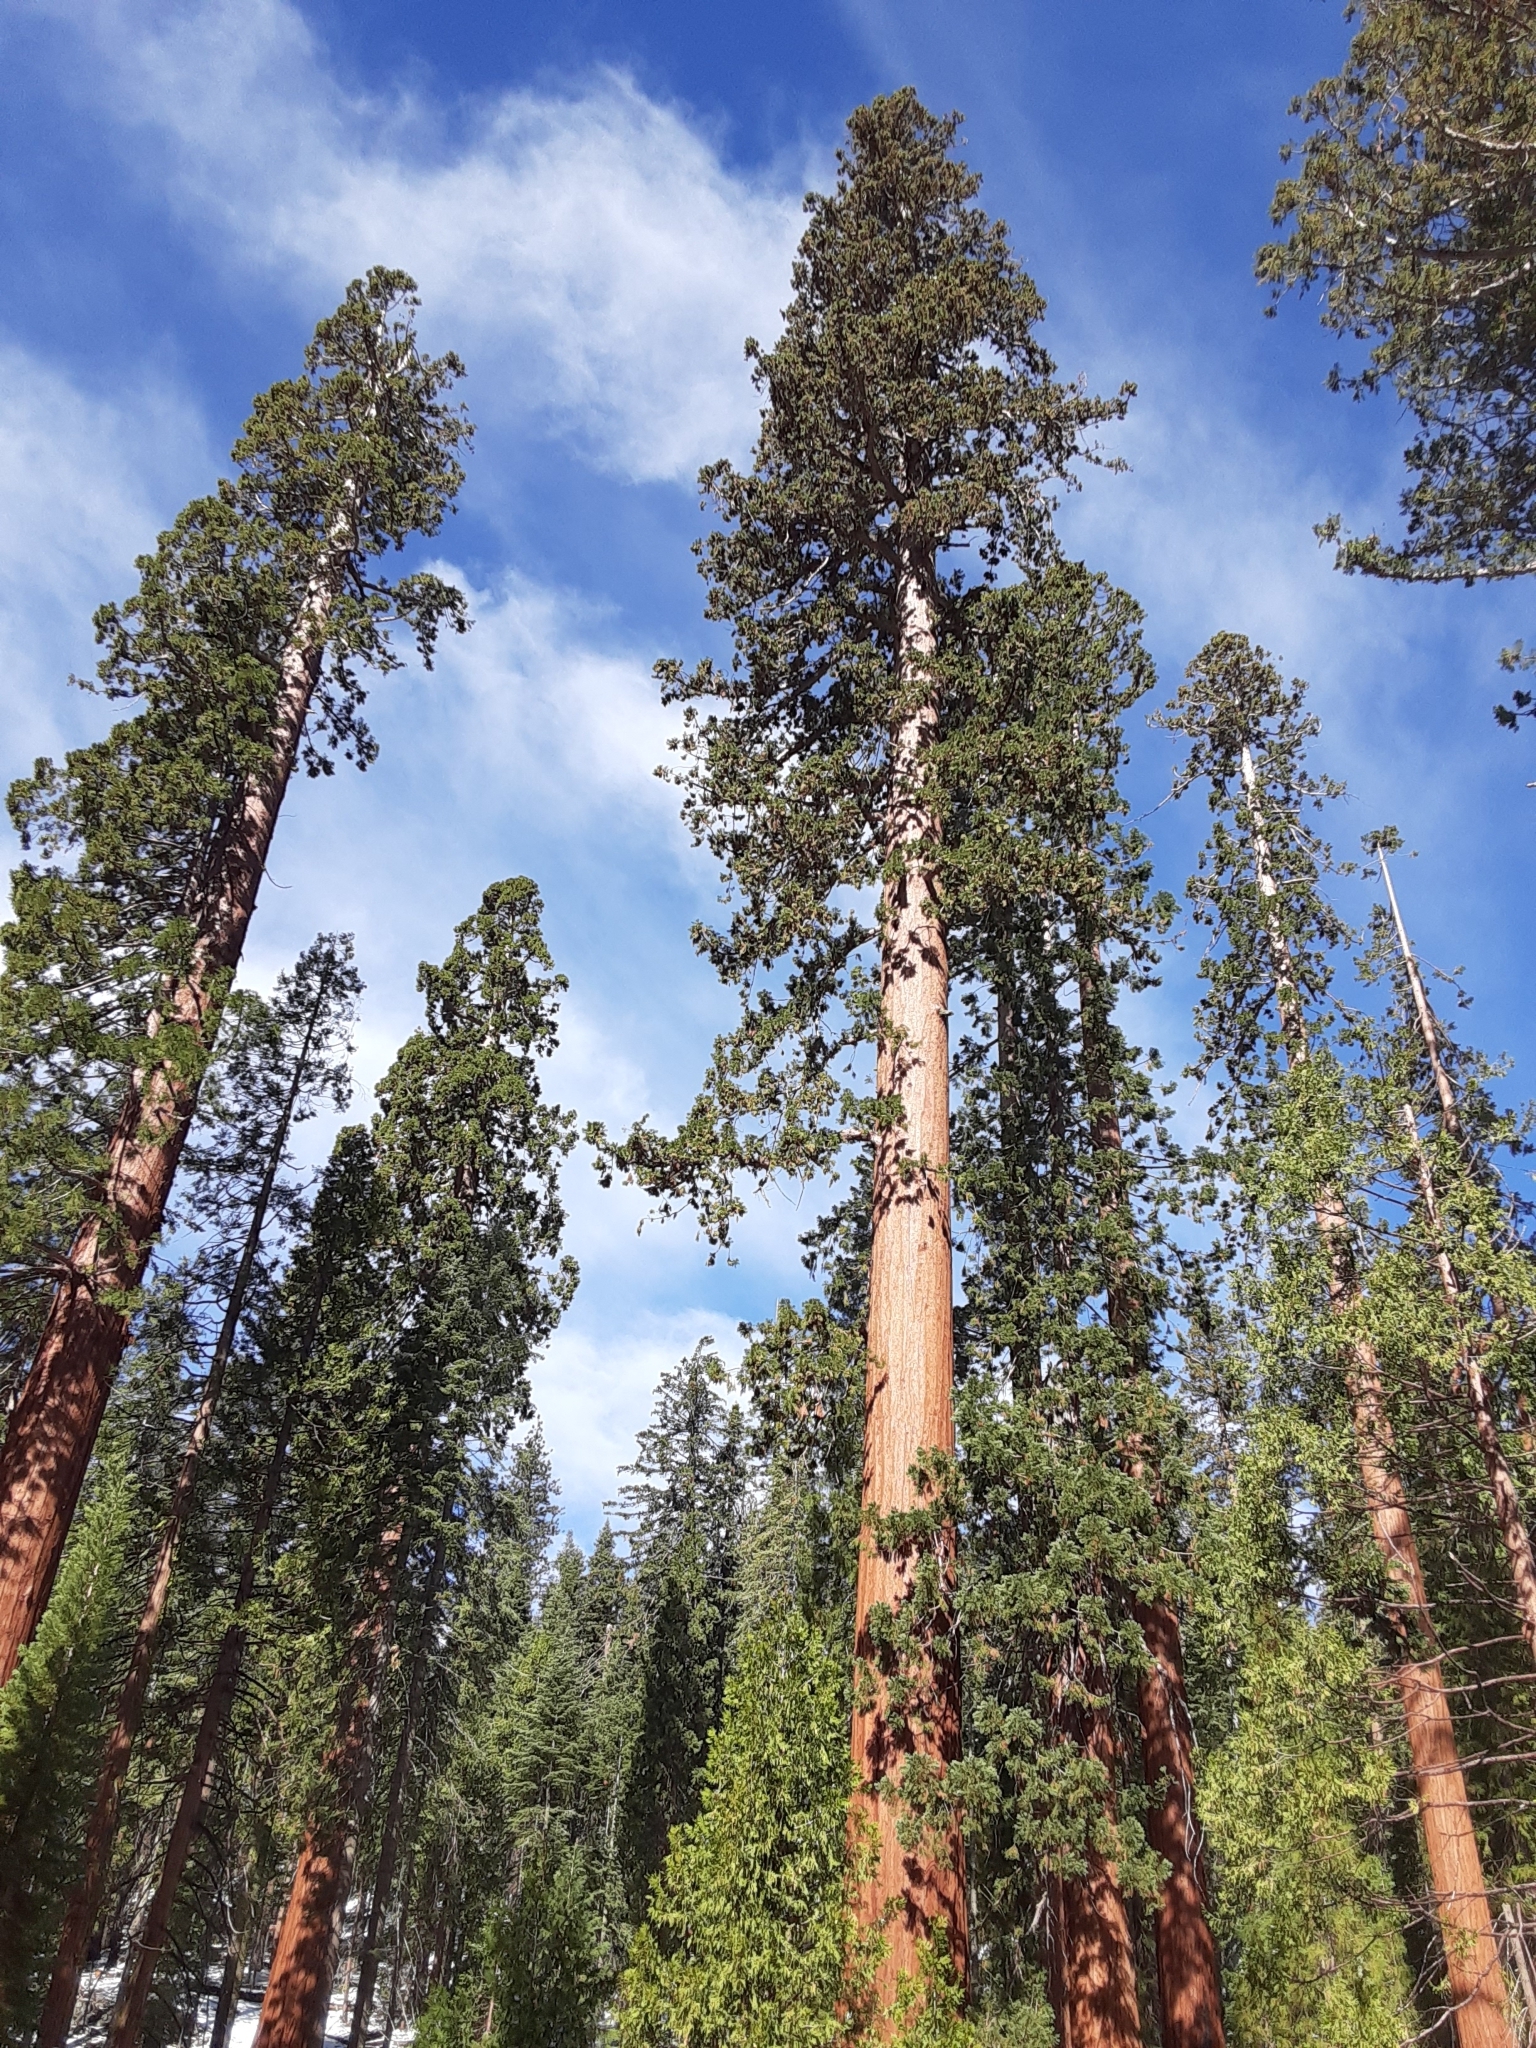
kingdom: Plantae
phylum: Tracheophyta
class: Pinopsida
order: Pinales
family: Cupressaceae
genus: Sequoiadendron
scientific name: Sequoiadendron giganteum
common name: Wellingtonia
